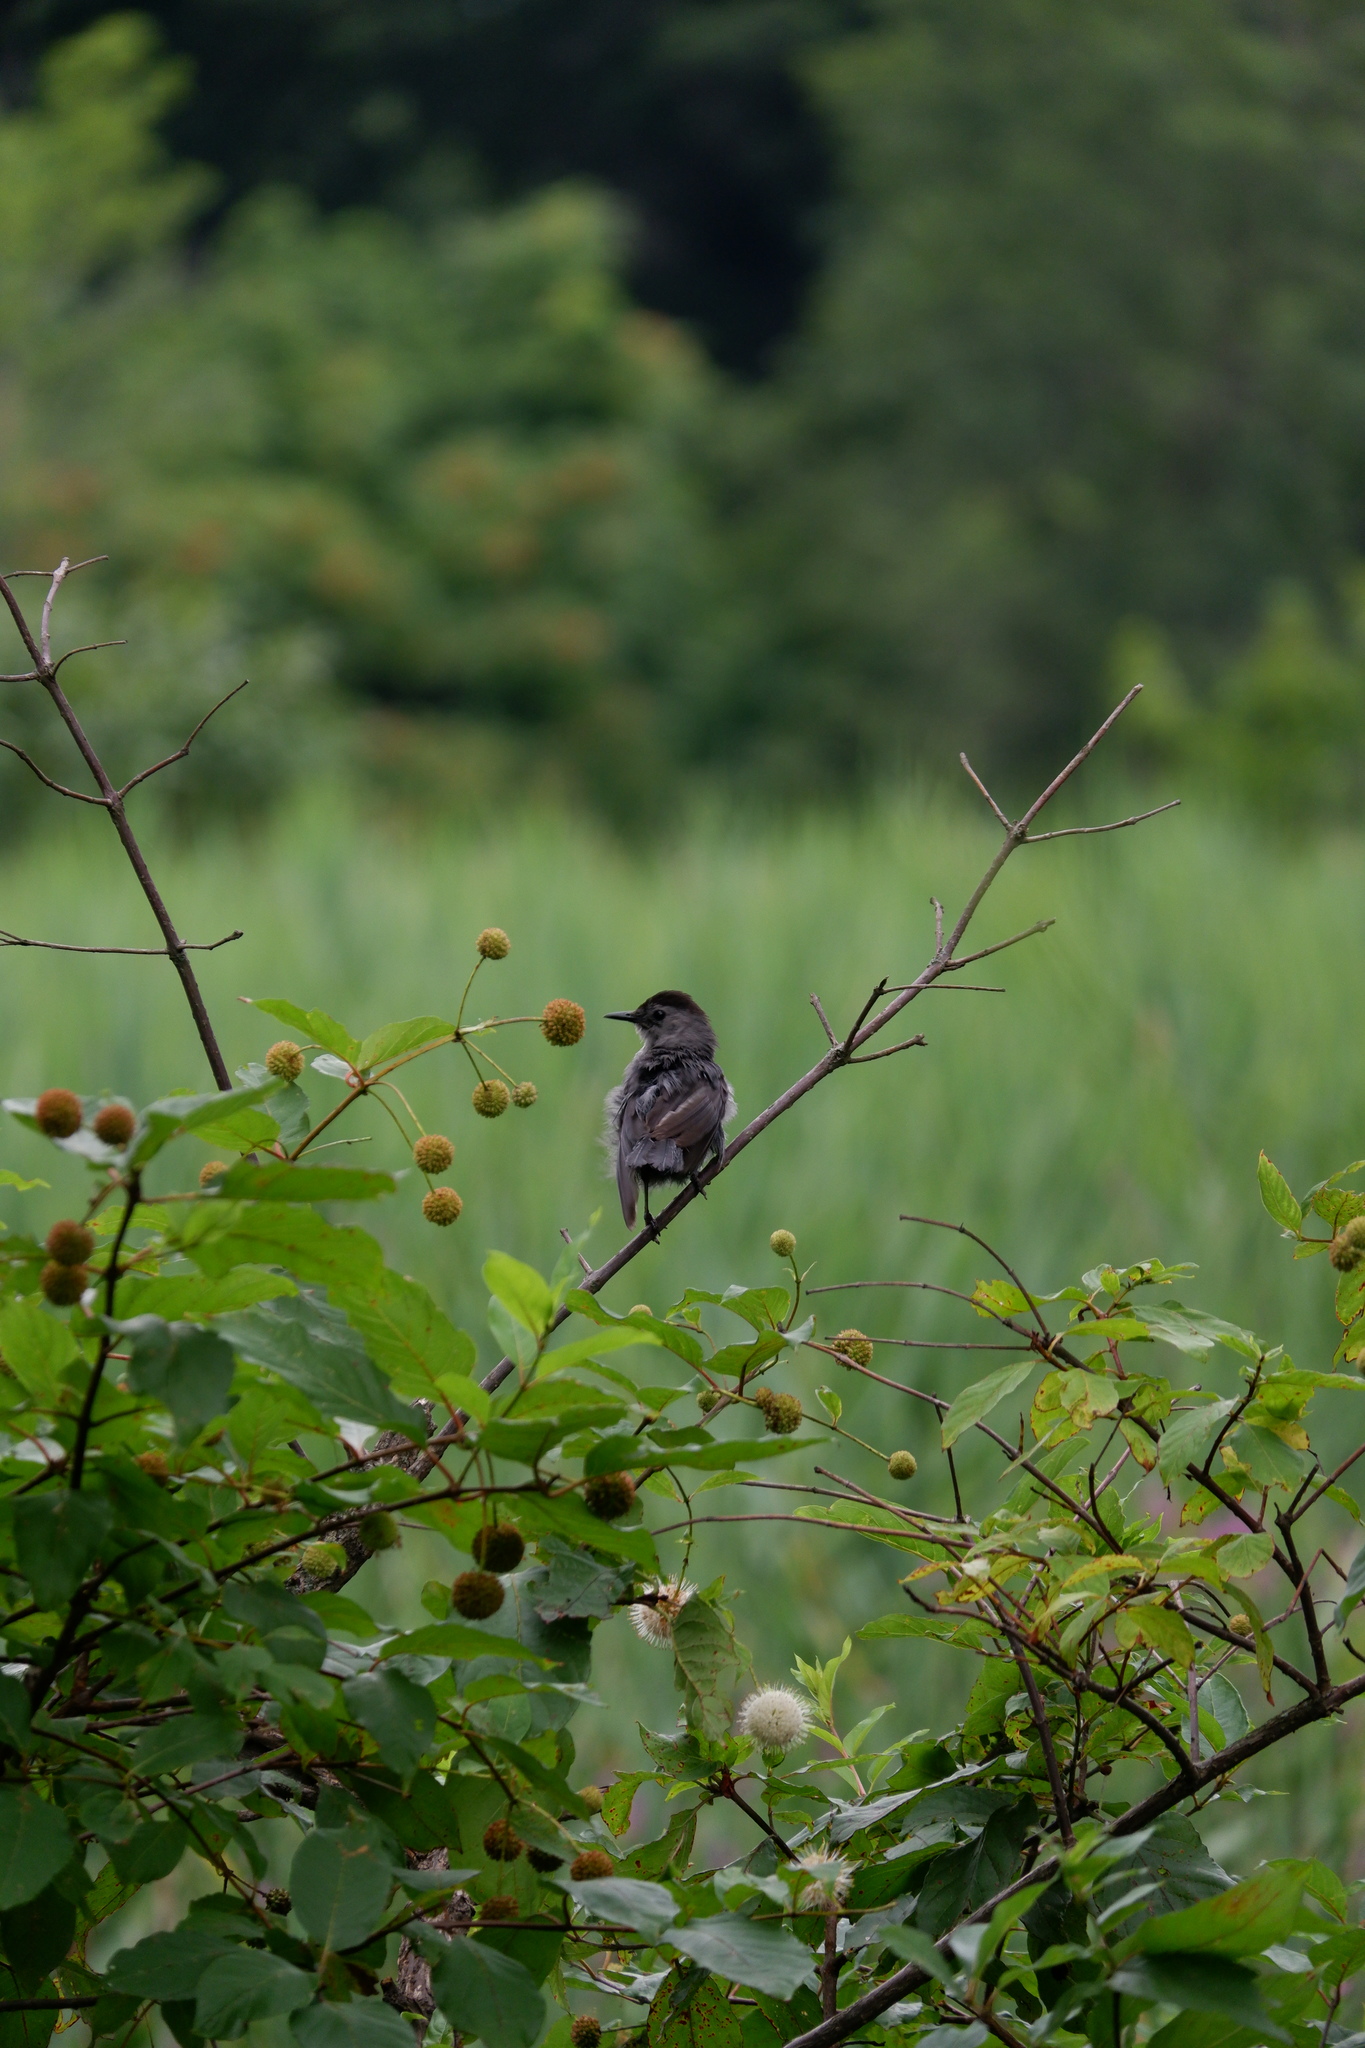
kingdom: Animalia
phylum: Chordata
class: Aves
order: Passeriformes
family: Mimidae
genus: Dumetella
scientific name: Dumetella carolinensis
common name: Gray catbird
